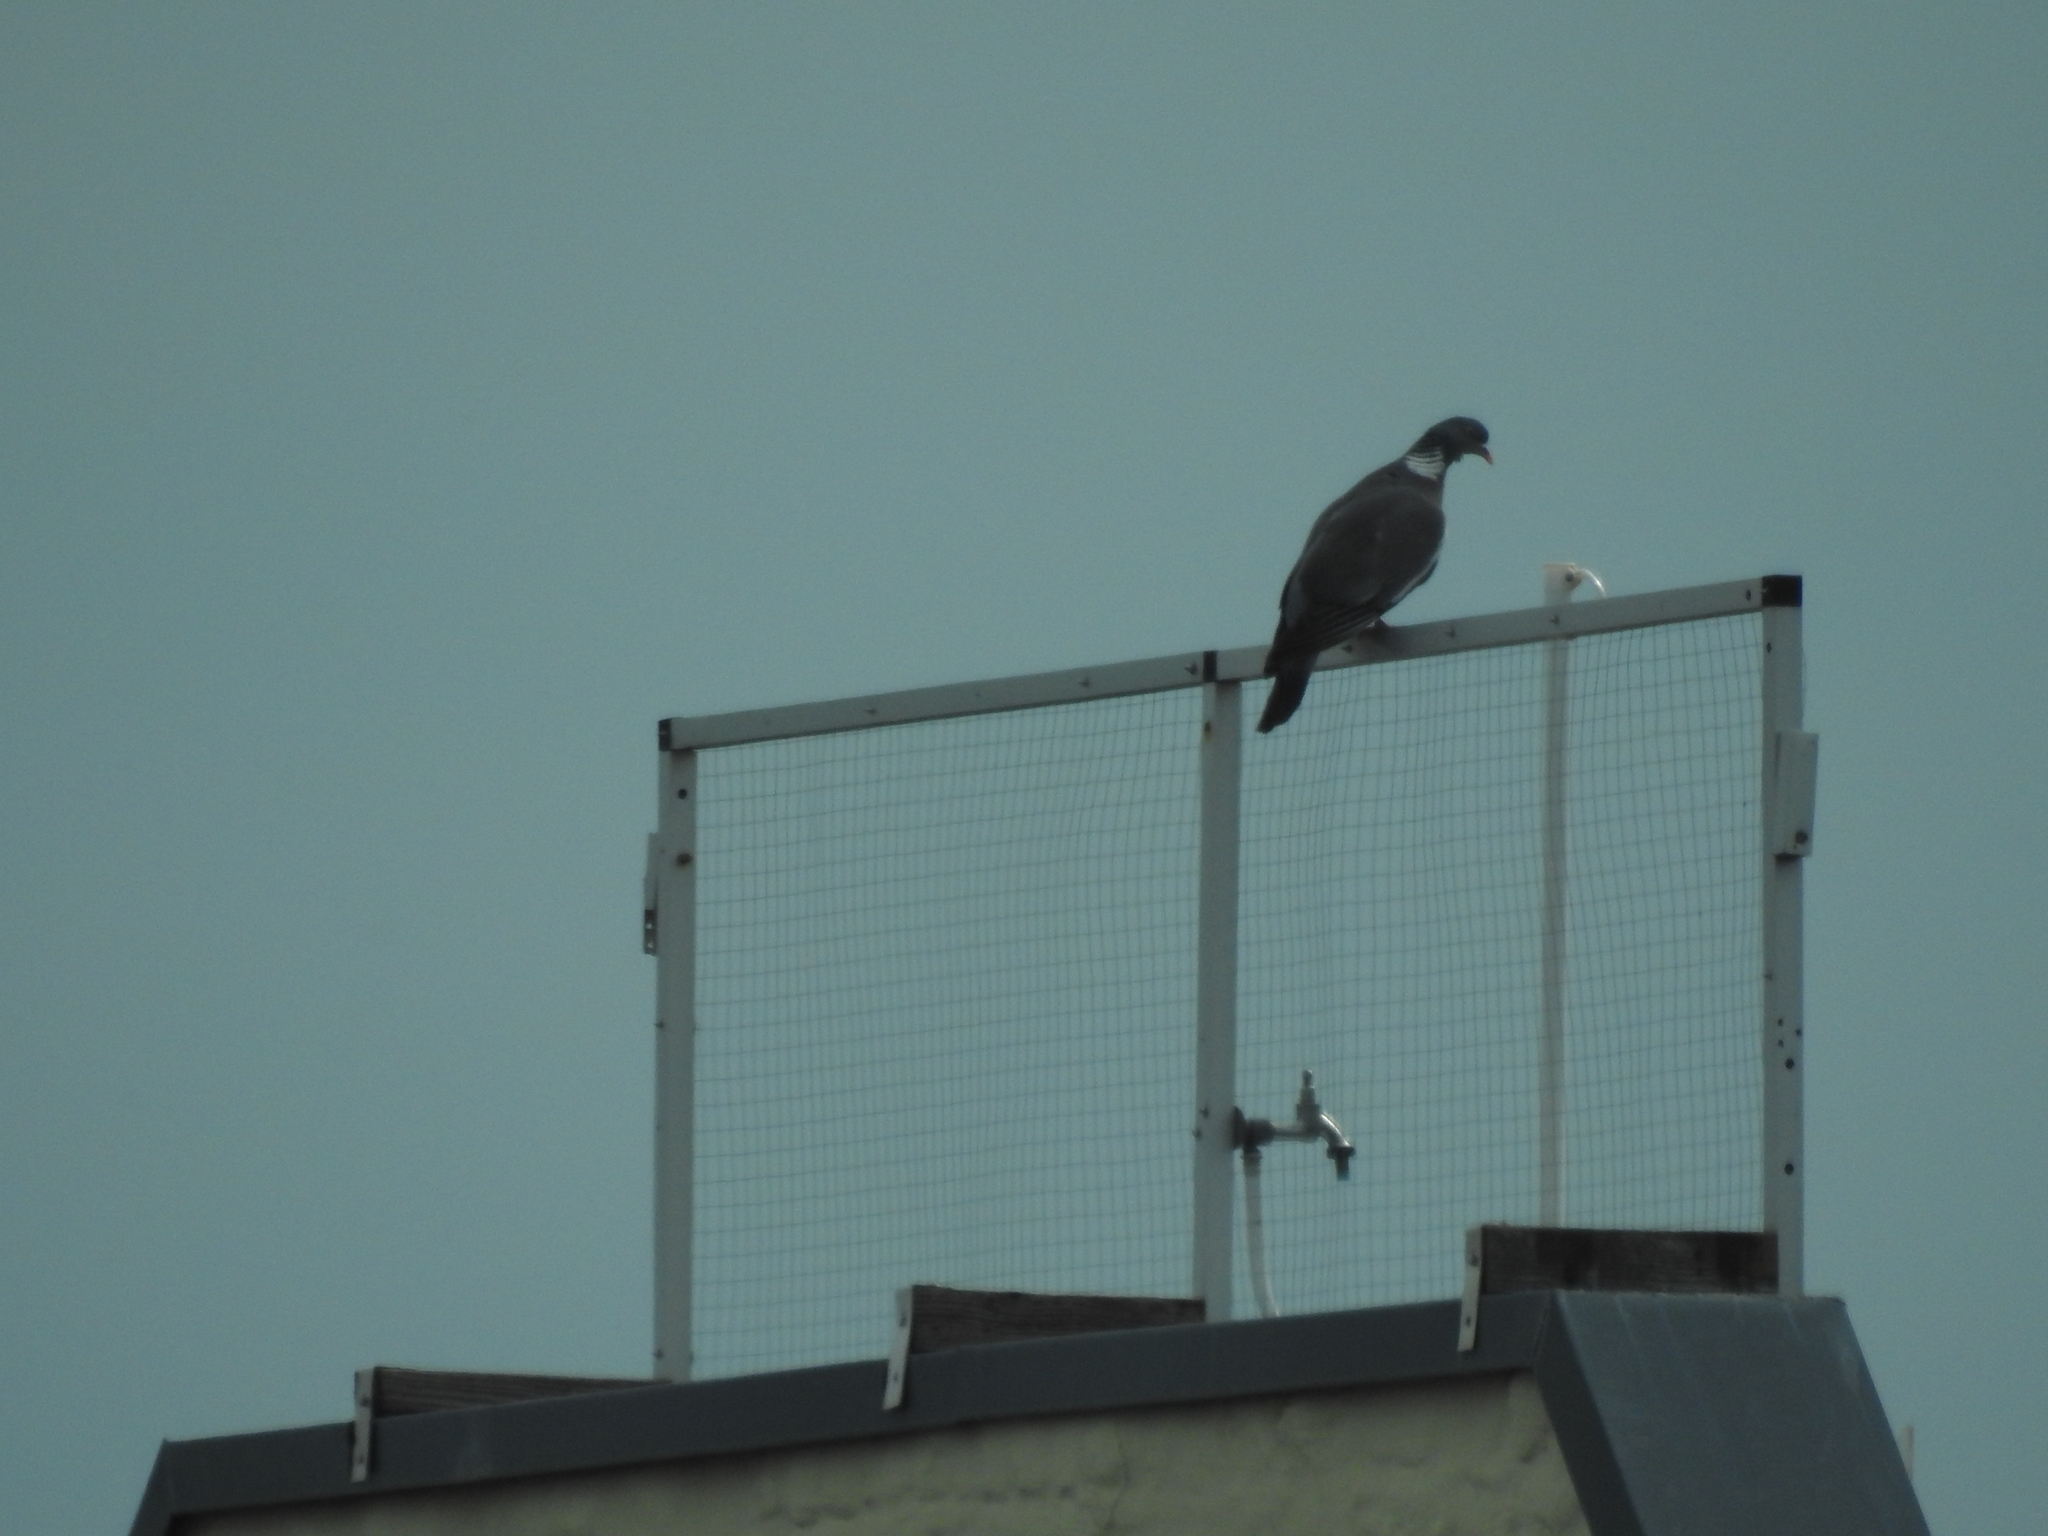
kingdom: Animalia
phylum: Chordata
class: Aves
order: Columbiformes
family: Columbidae
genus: Columba
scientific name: Columba palumbus
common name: Common wood pigeon
